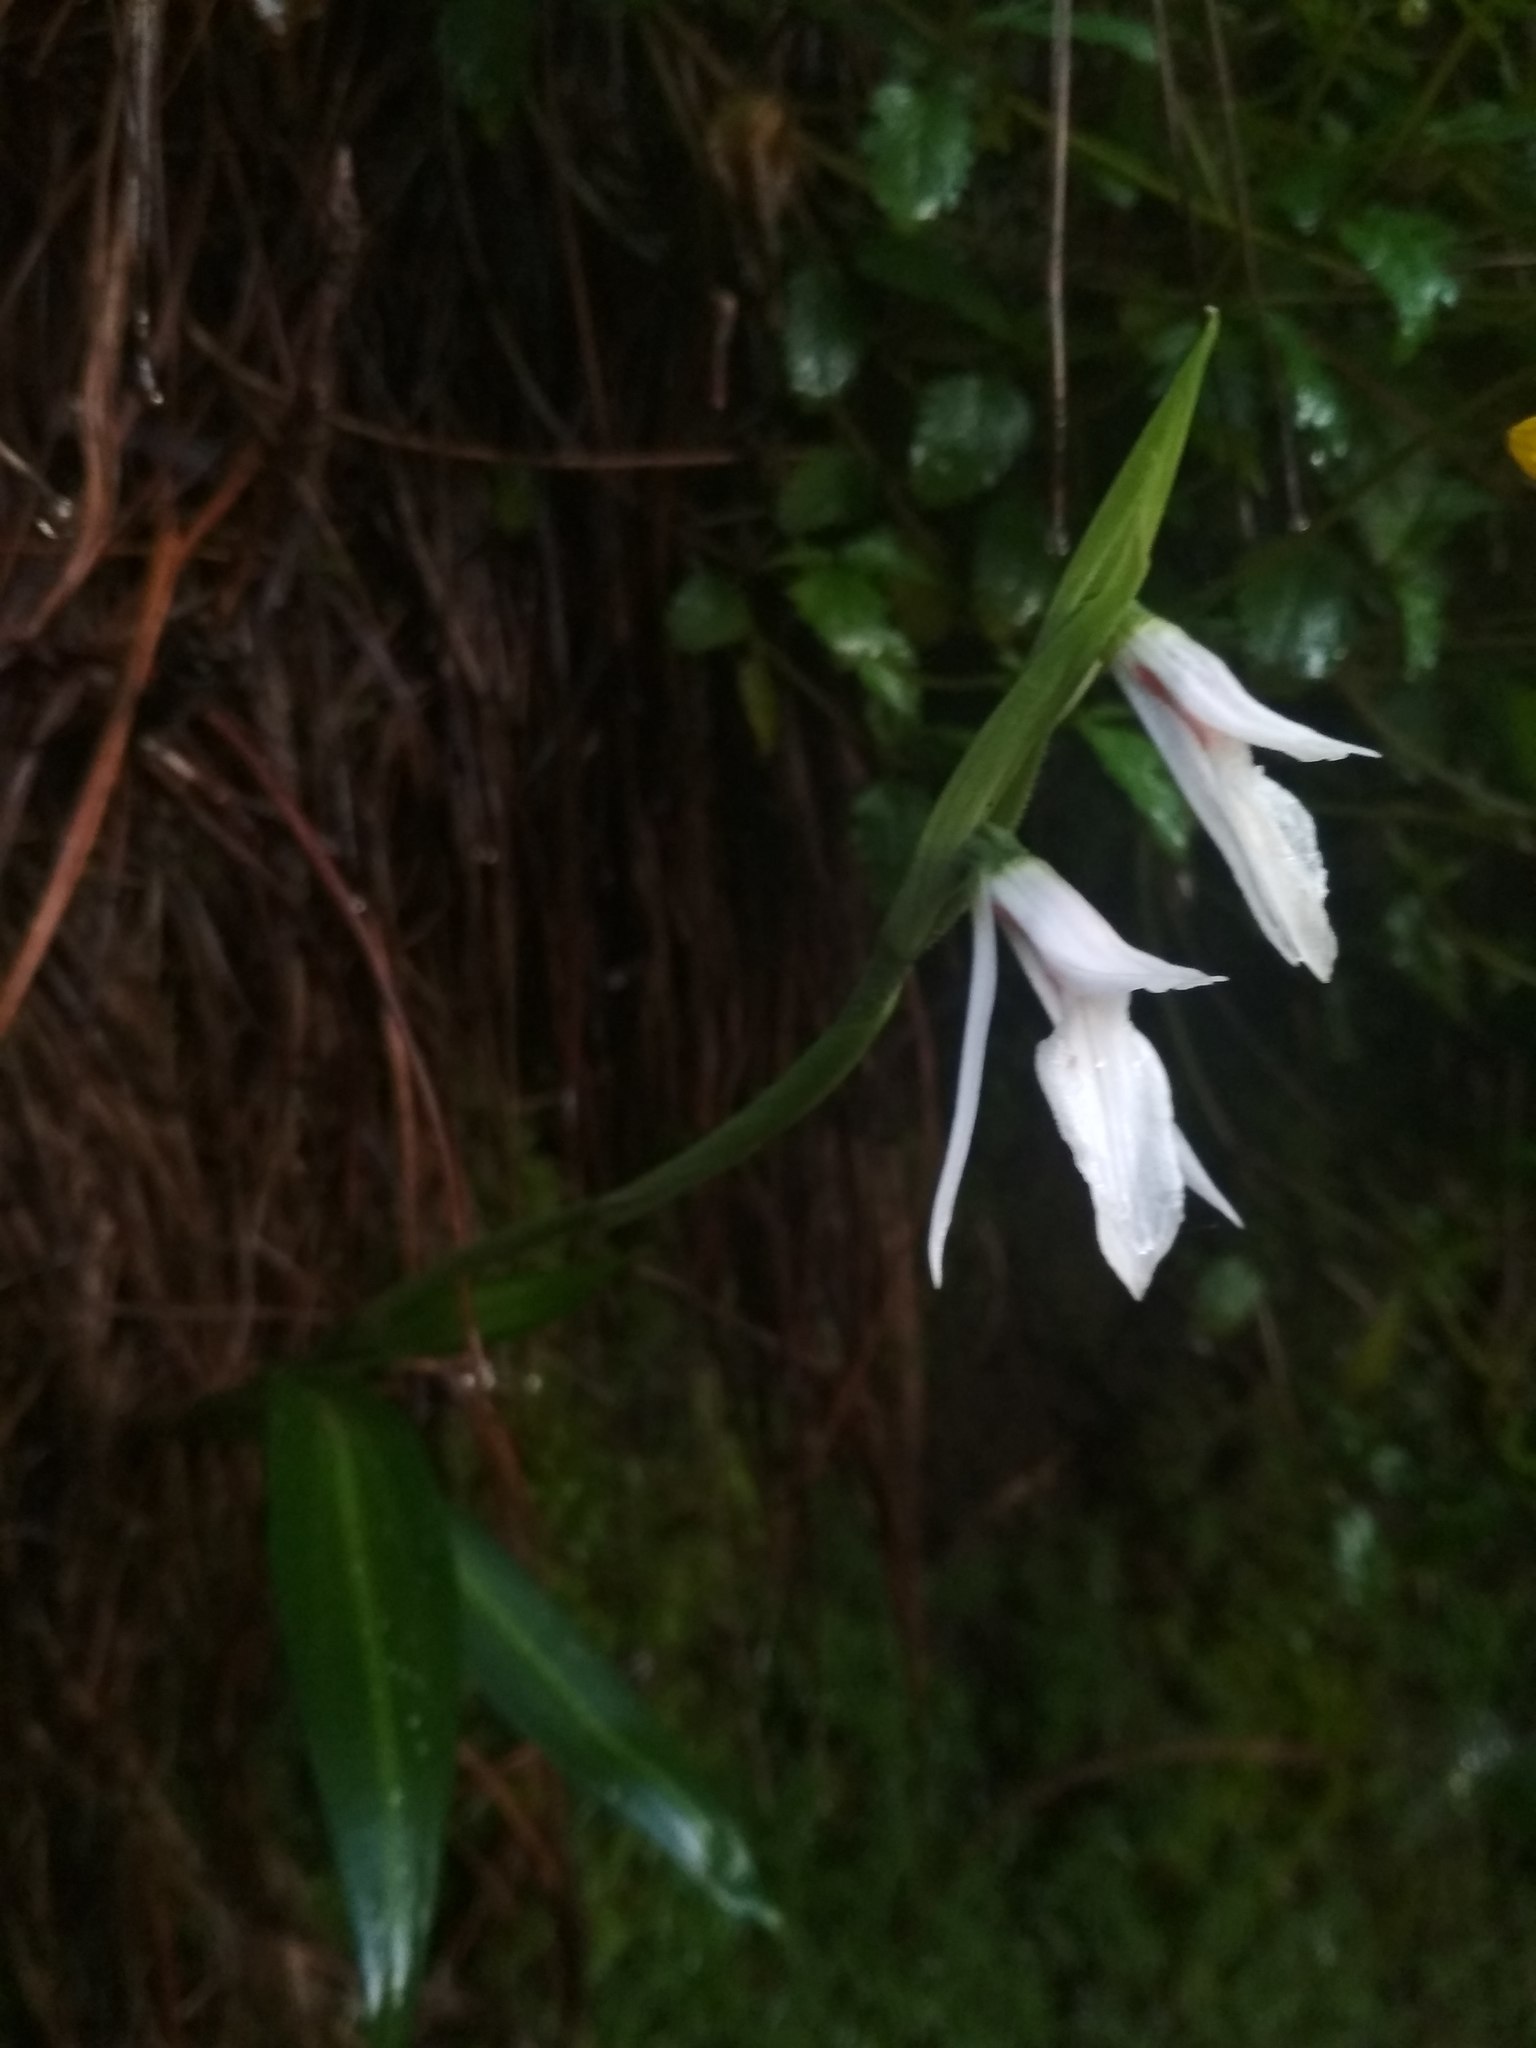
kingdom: Plantae
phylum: Tracheophyta
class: Liliopsida
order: Asparagales
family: Orchidaceae
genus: Funkiella
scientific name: Funkiella hyemalis
